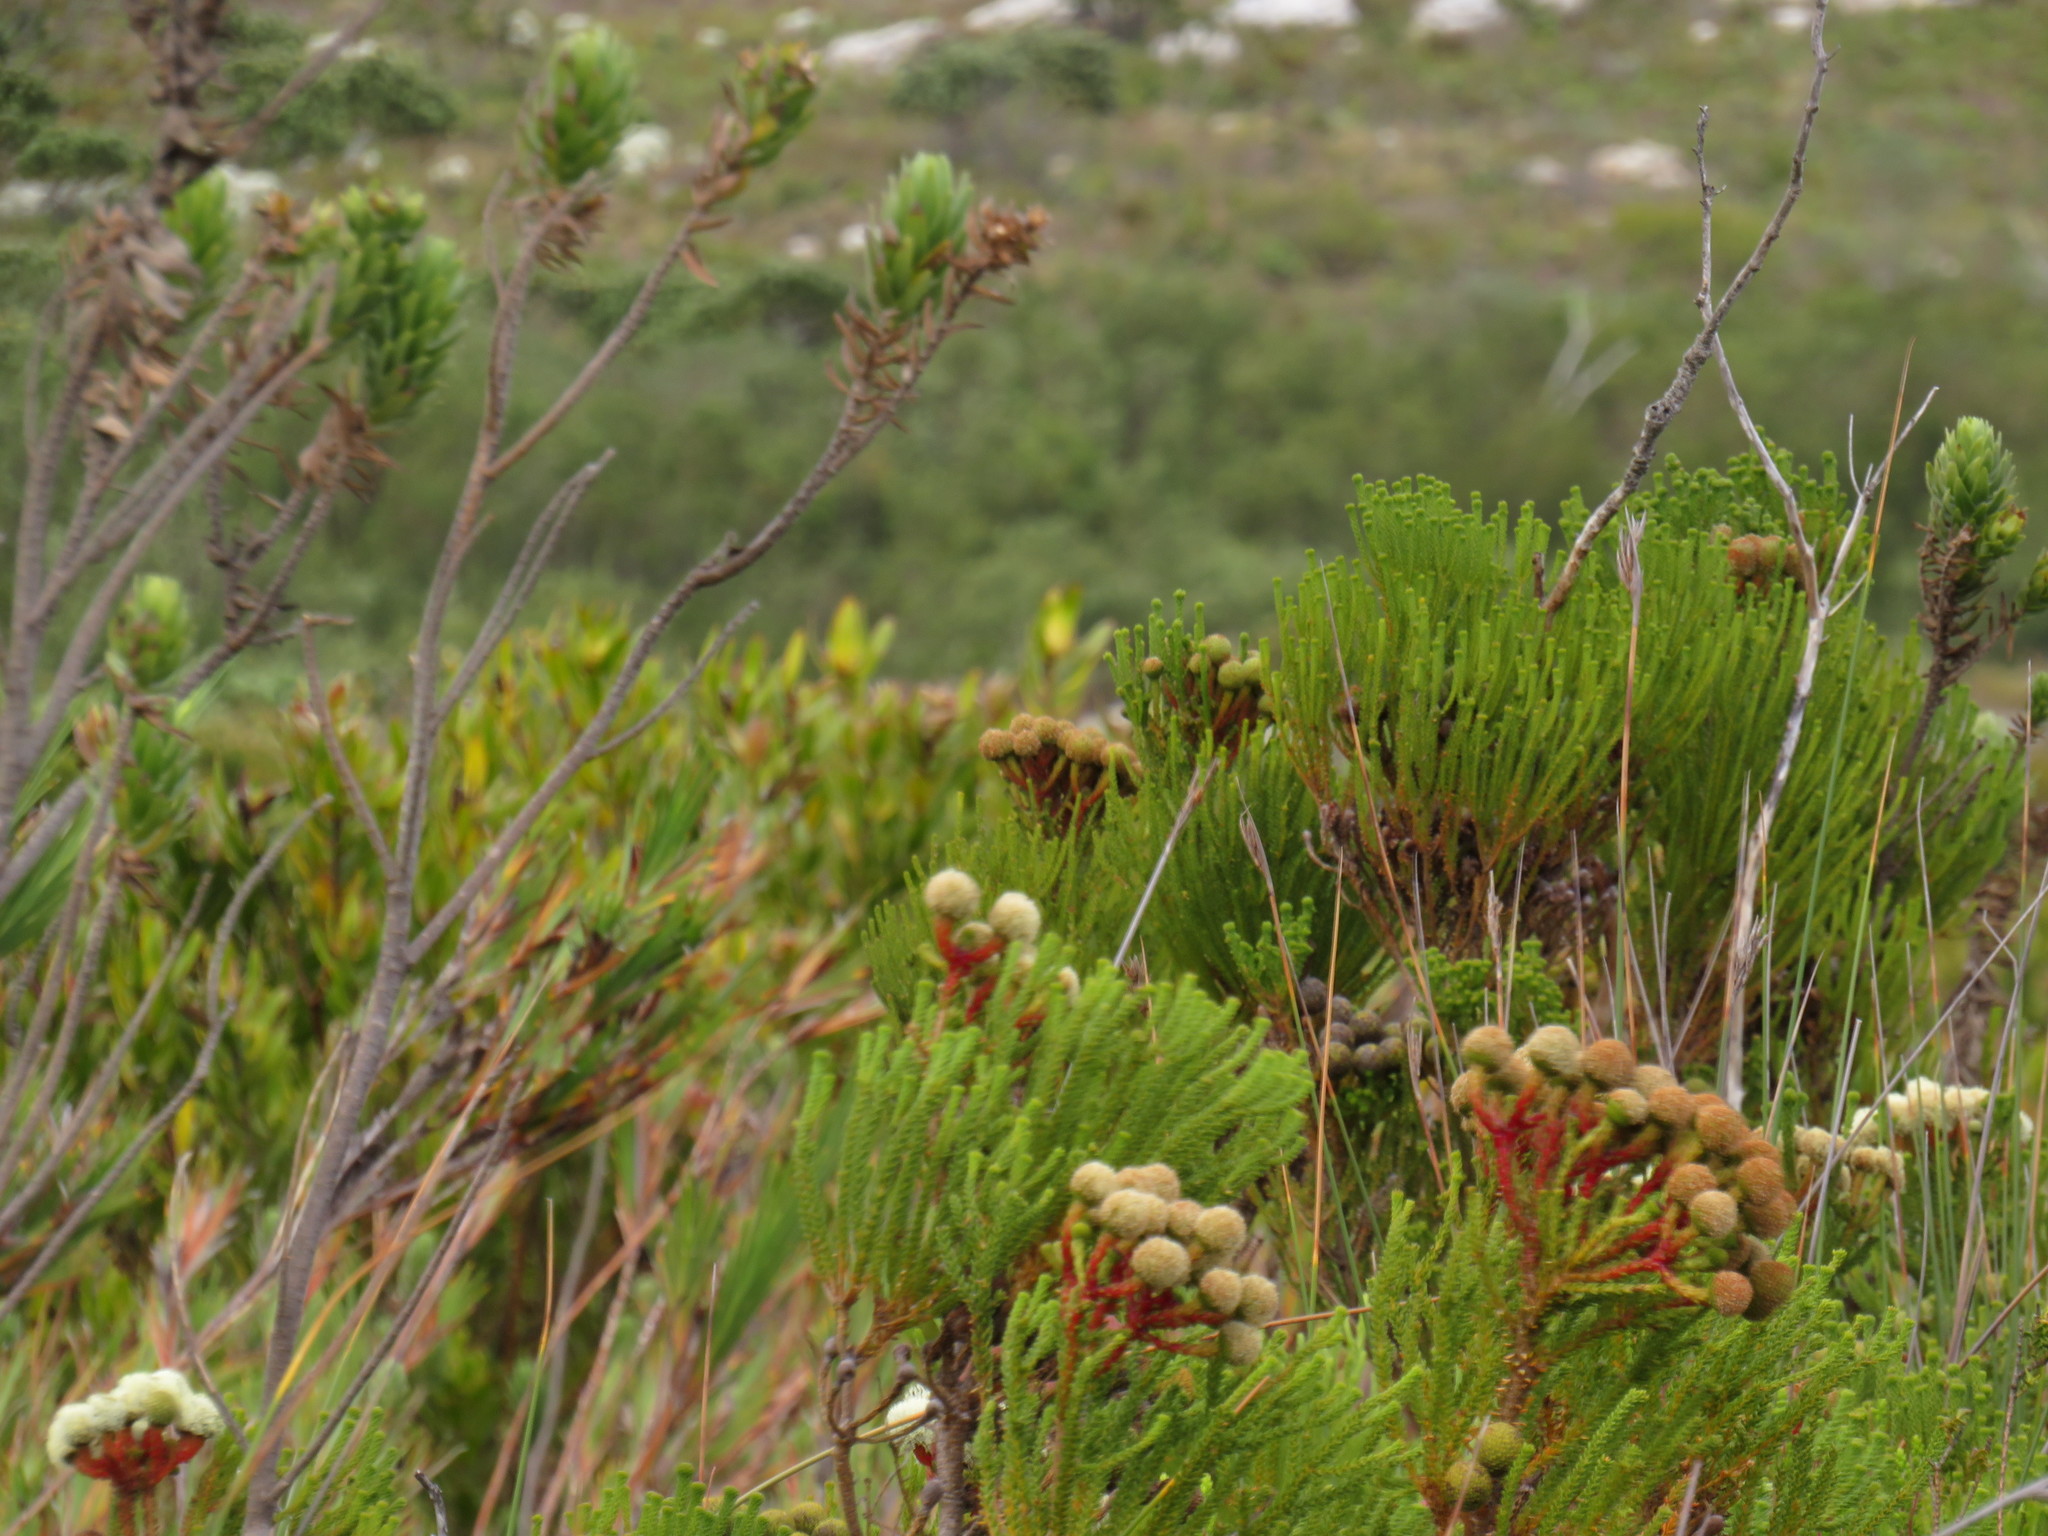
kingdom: Plantae
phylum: Tracheophyta
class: Liliopsida
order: Asparagales
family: Iridaceae
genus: Witsenia
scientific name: Witsenia maura
